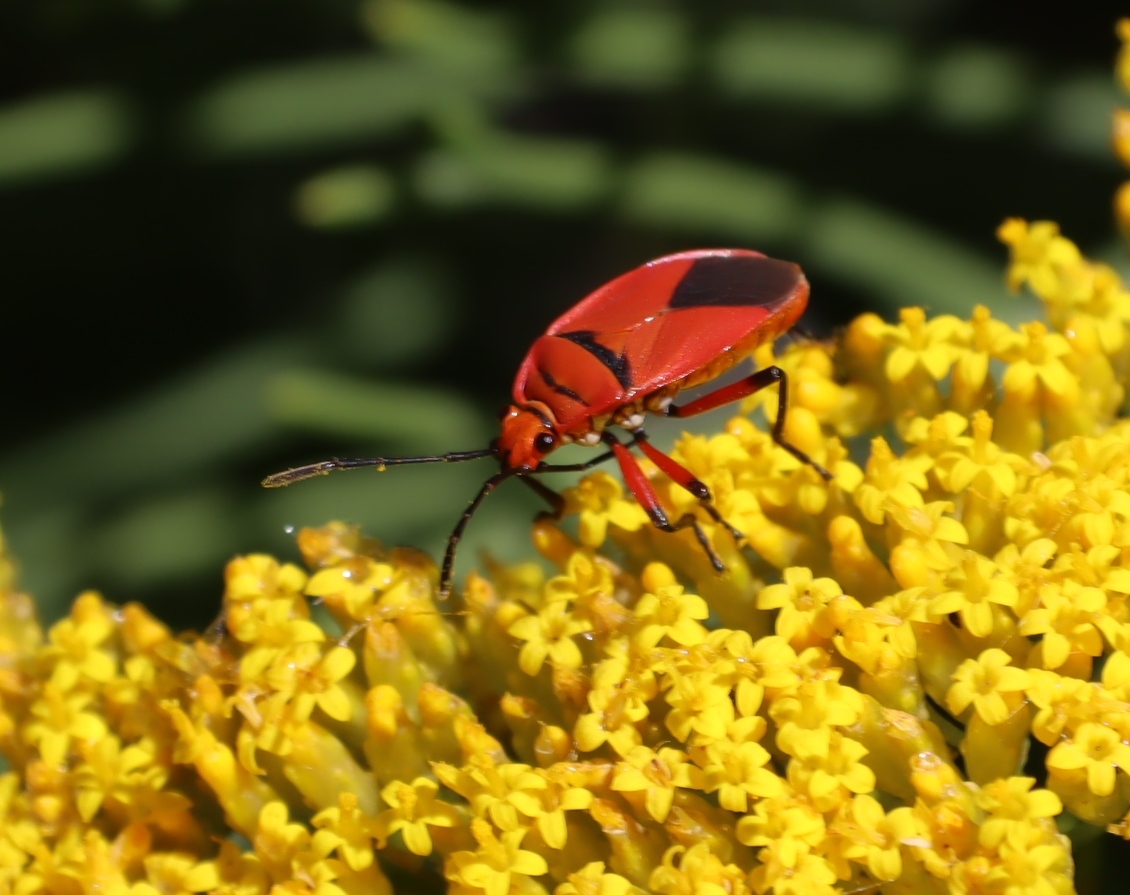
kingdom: Animalia
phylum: Arthropoda
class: Insecta
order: Hemiptera
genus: Cenaeus
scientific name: Cenaeus
